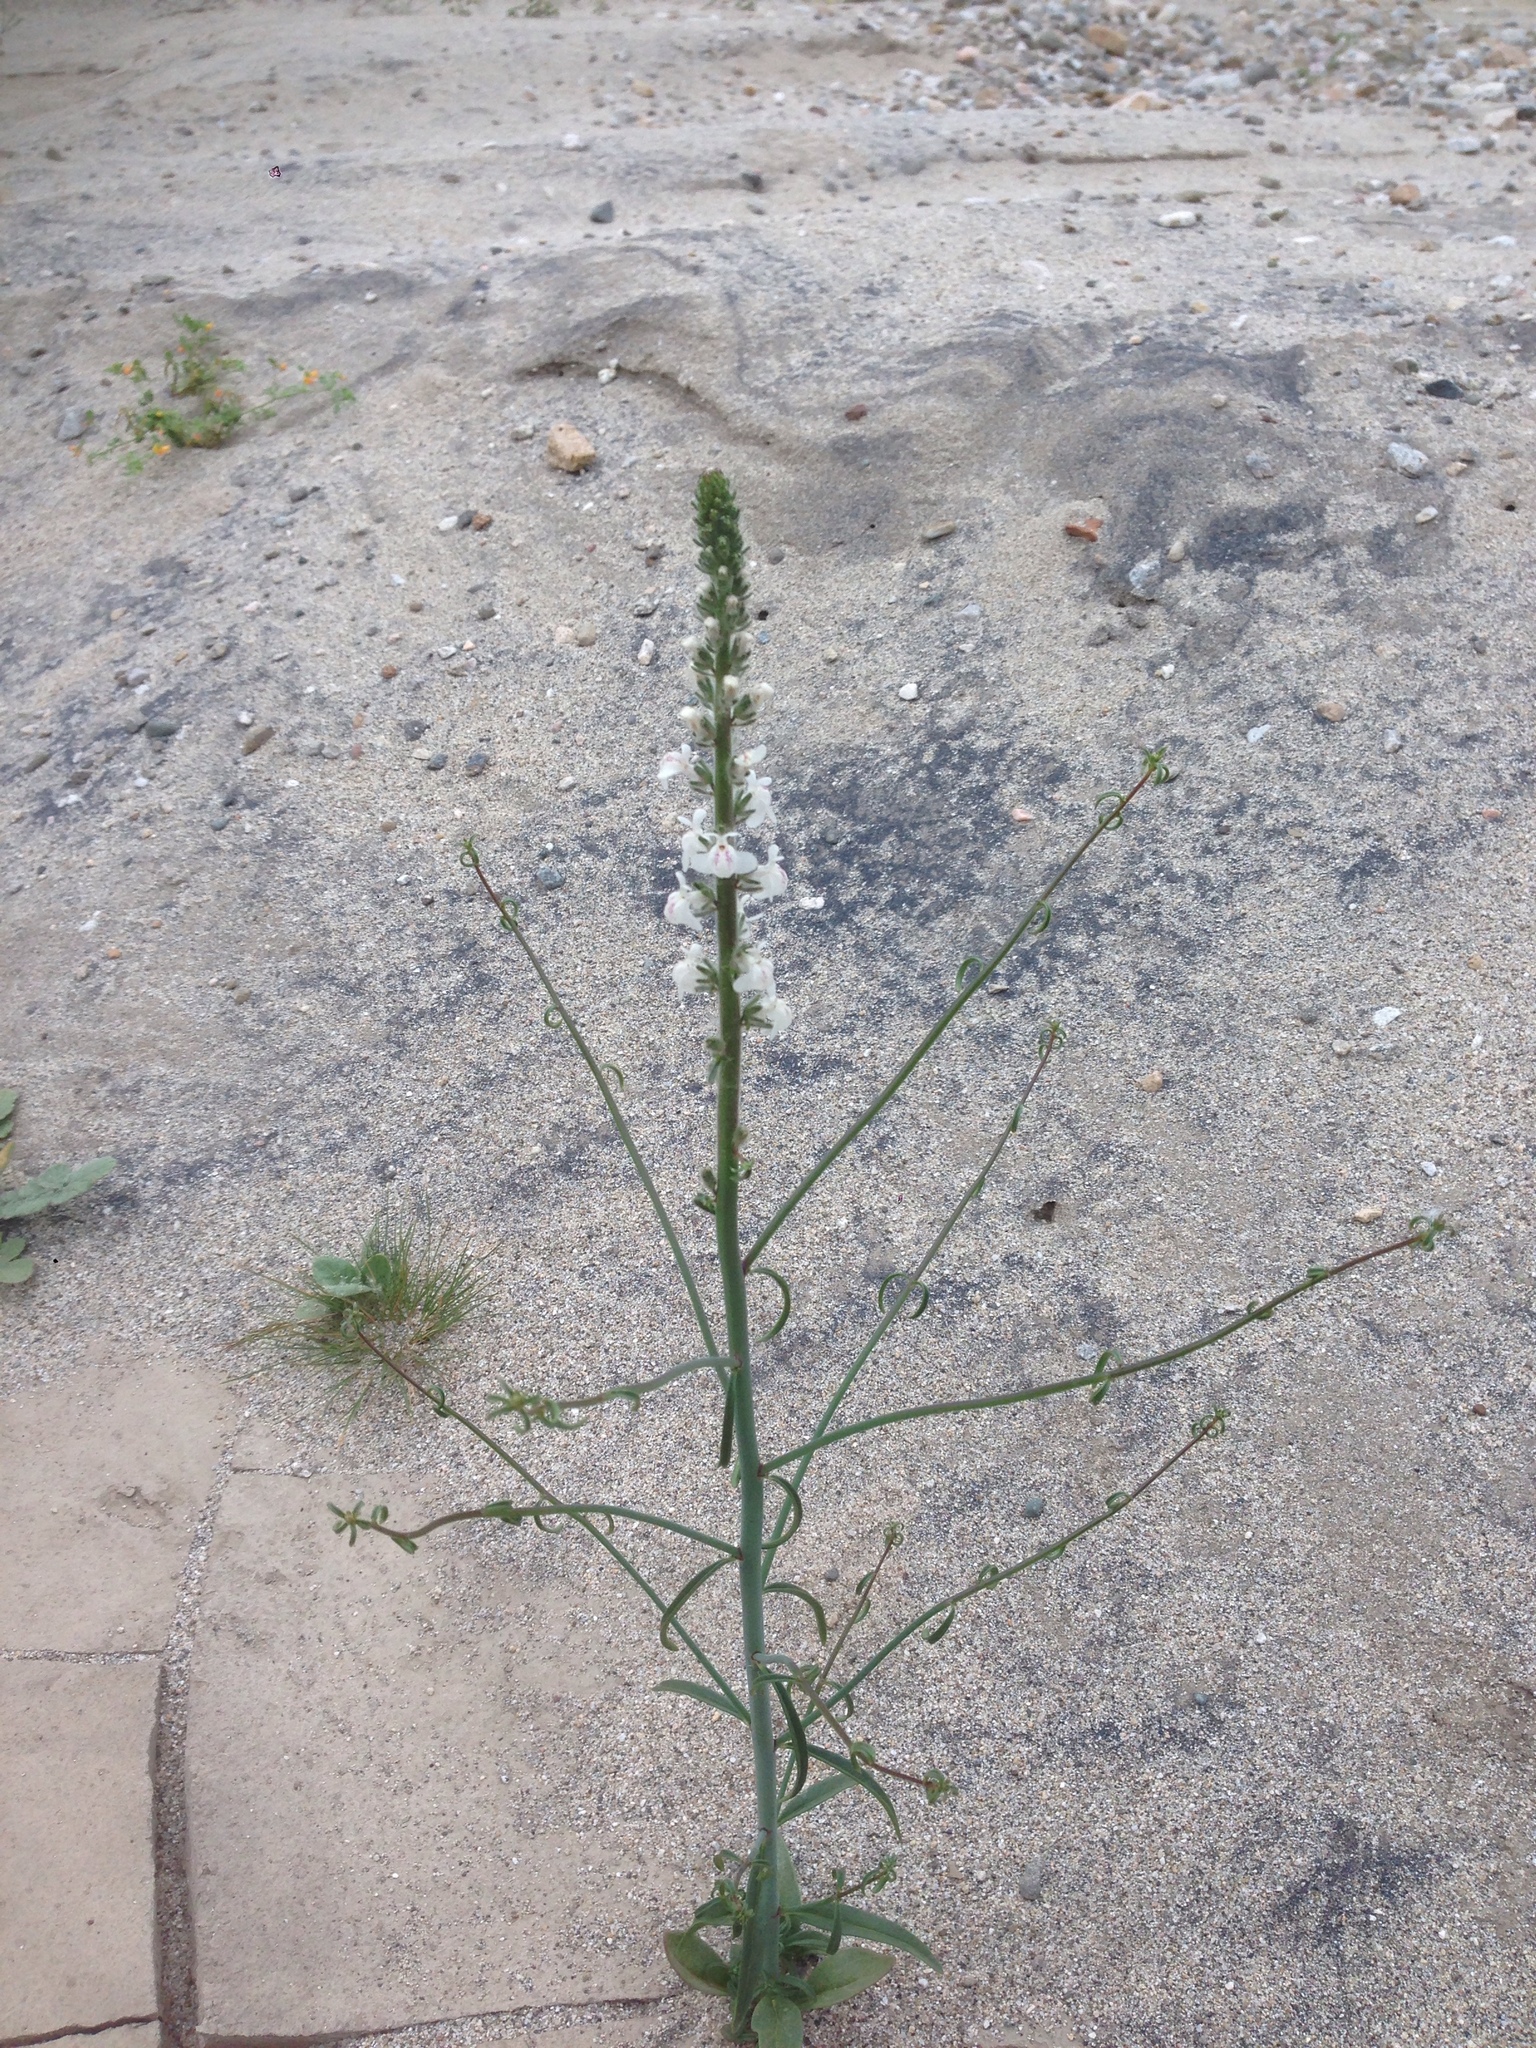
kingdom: Plantae
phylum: Tracheophyta
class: Magnoliopsida
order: Lamiales
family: Plantaginaceae
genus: Sairocarpus
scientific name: Sairocarpus coulterianus
